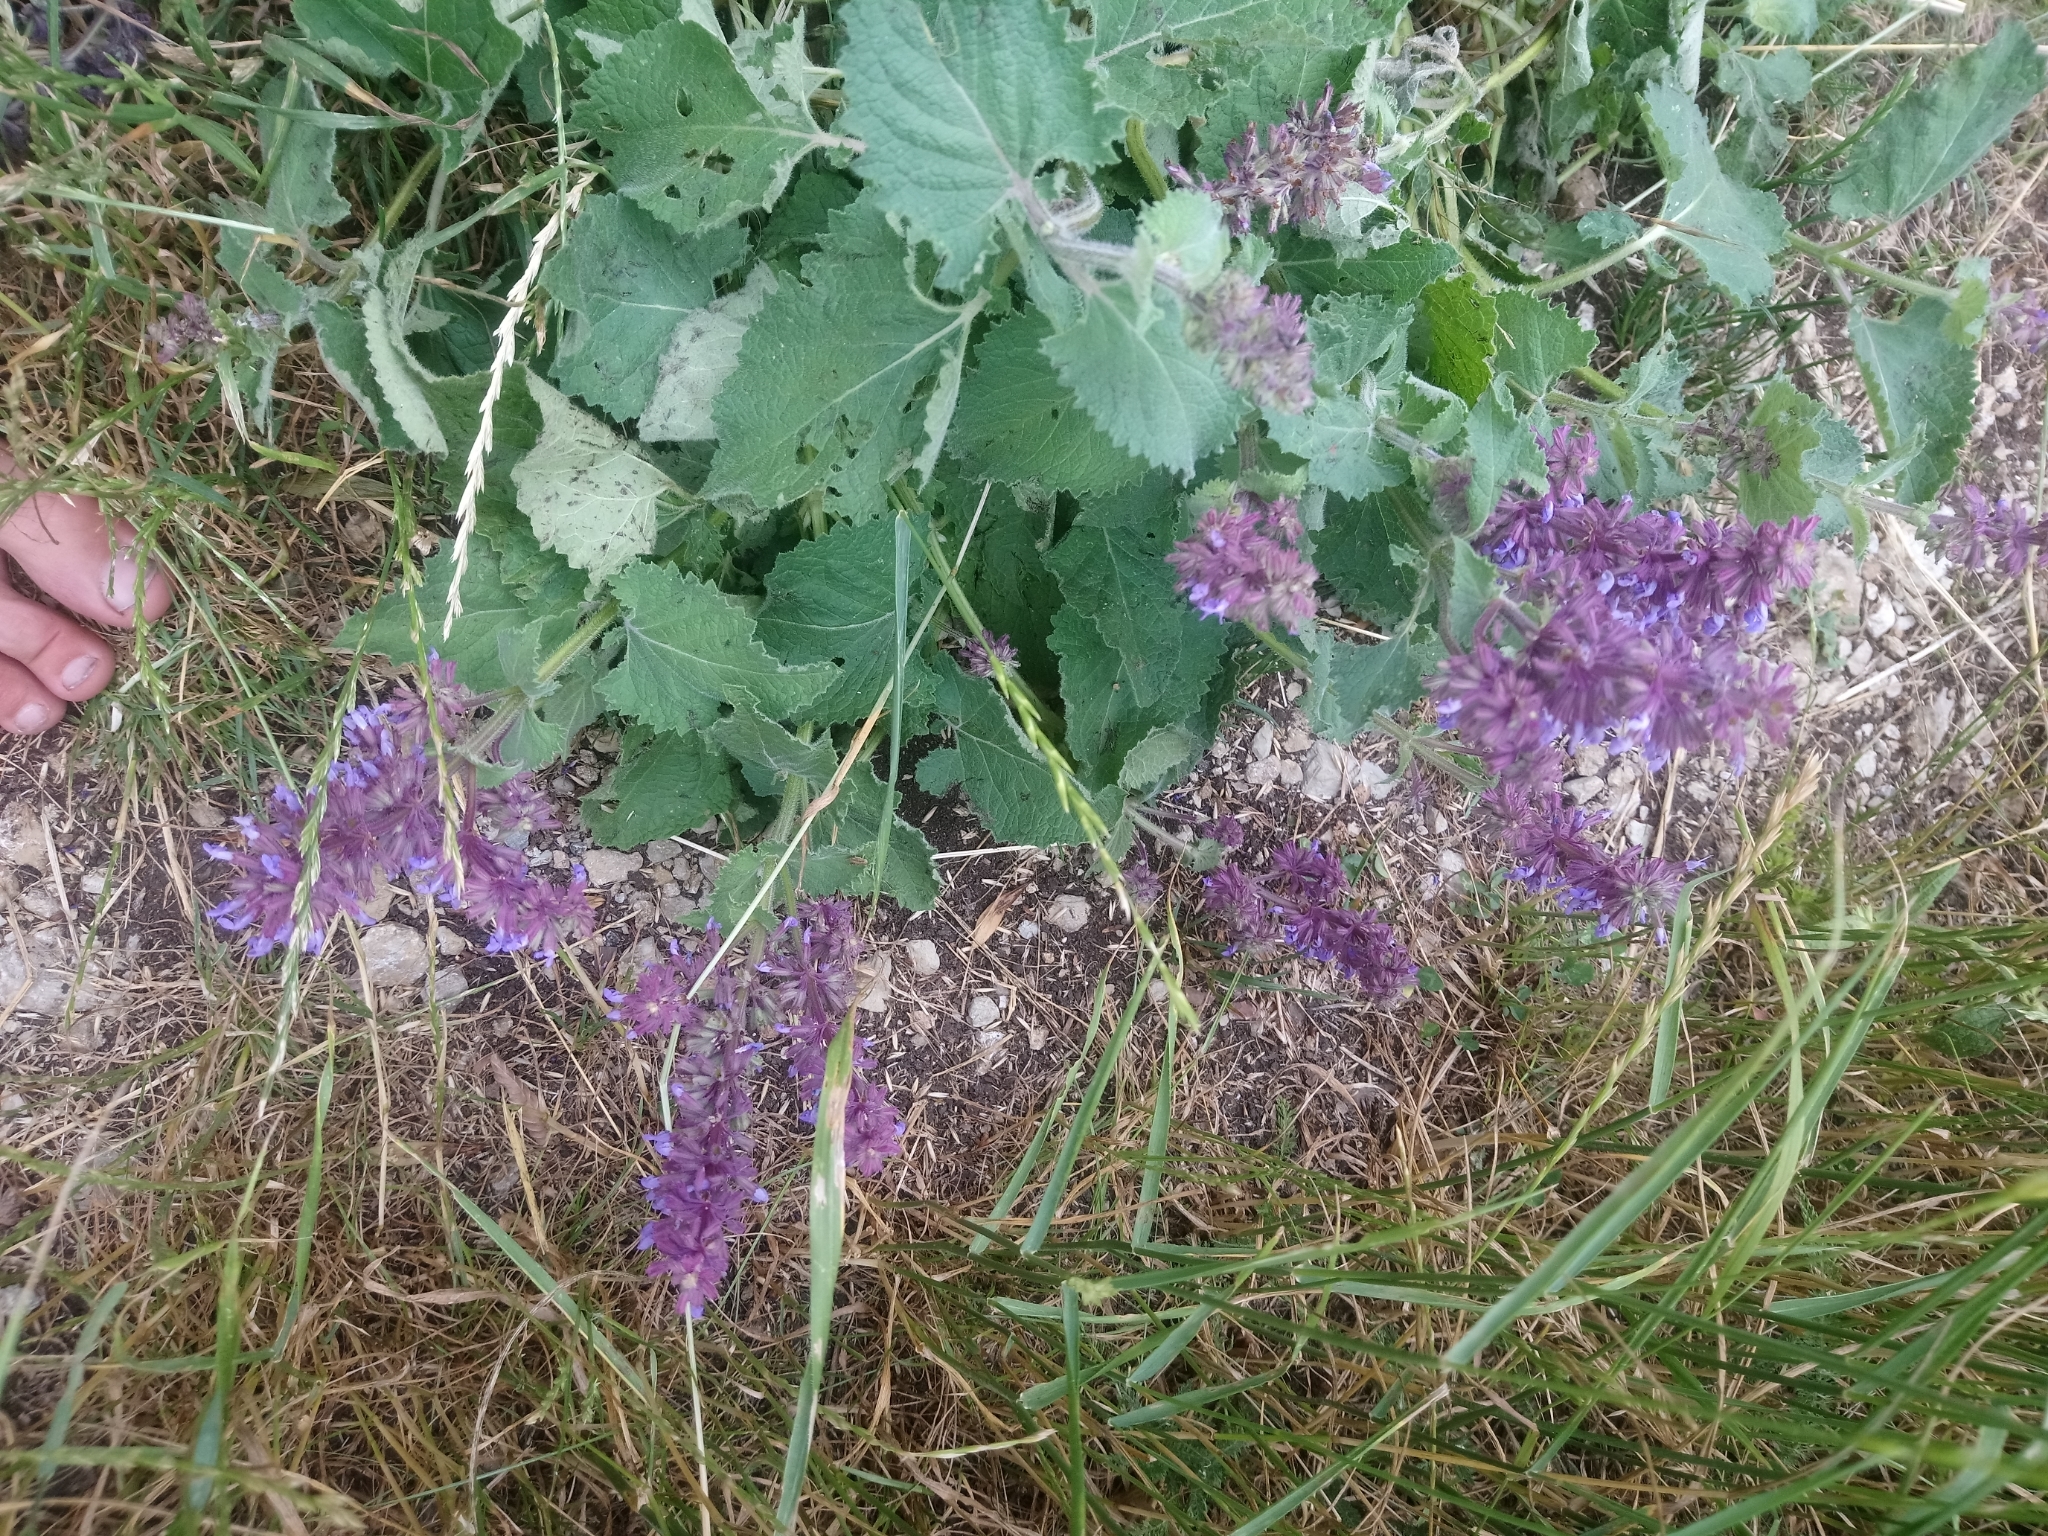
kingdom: Plantae
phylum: Tracheophyta
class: Magnoliopsida
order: Lamiales
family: Lamiaceae
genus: Salvia
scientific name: Salvia verticillata
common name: Whorled clary
